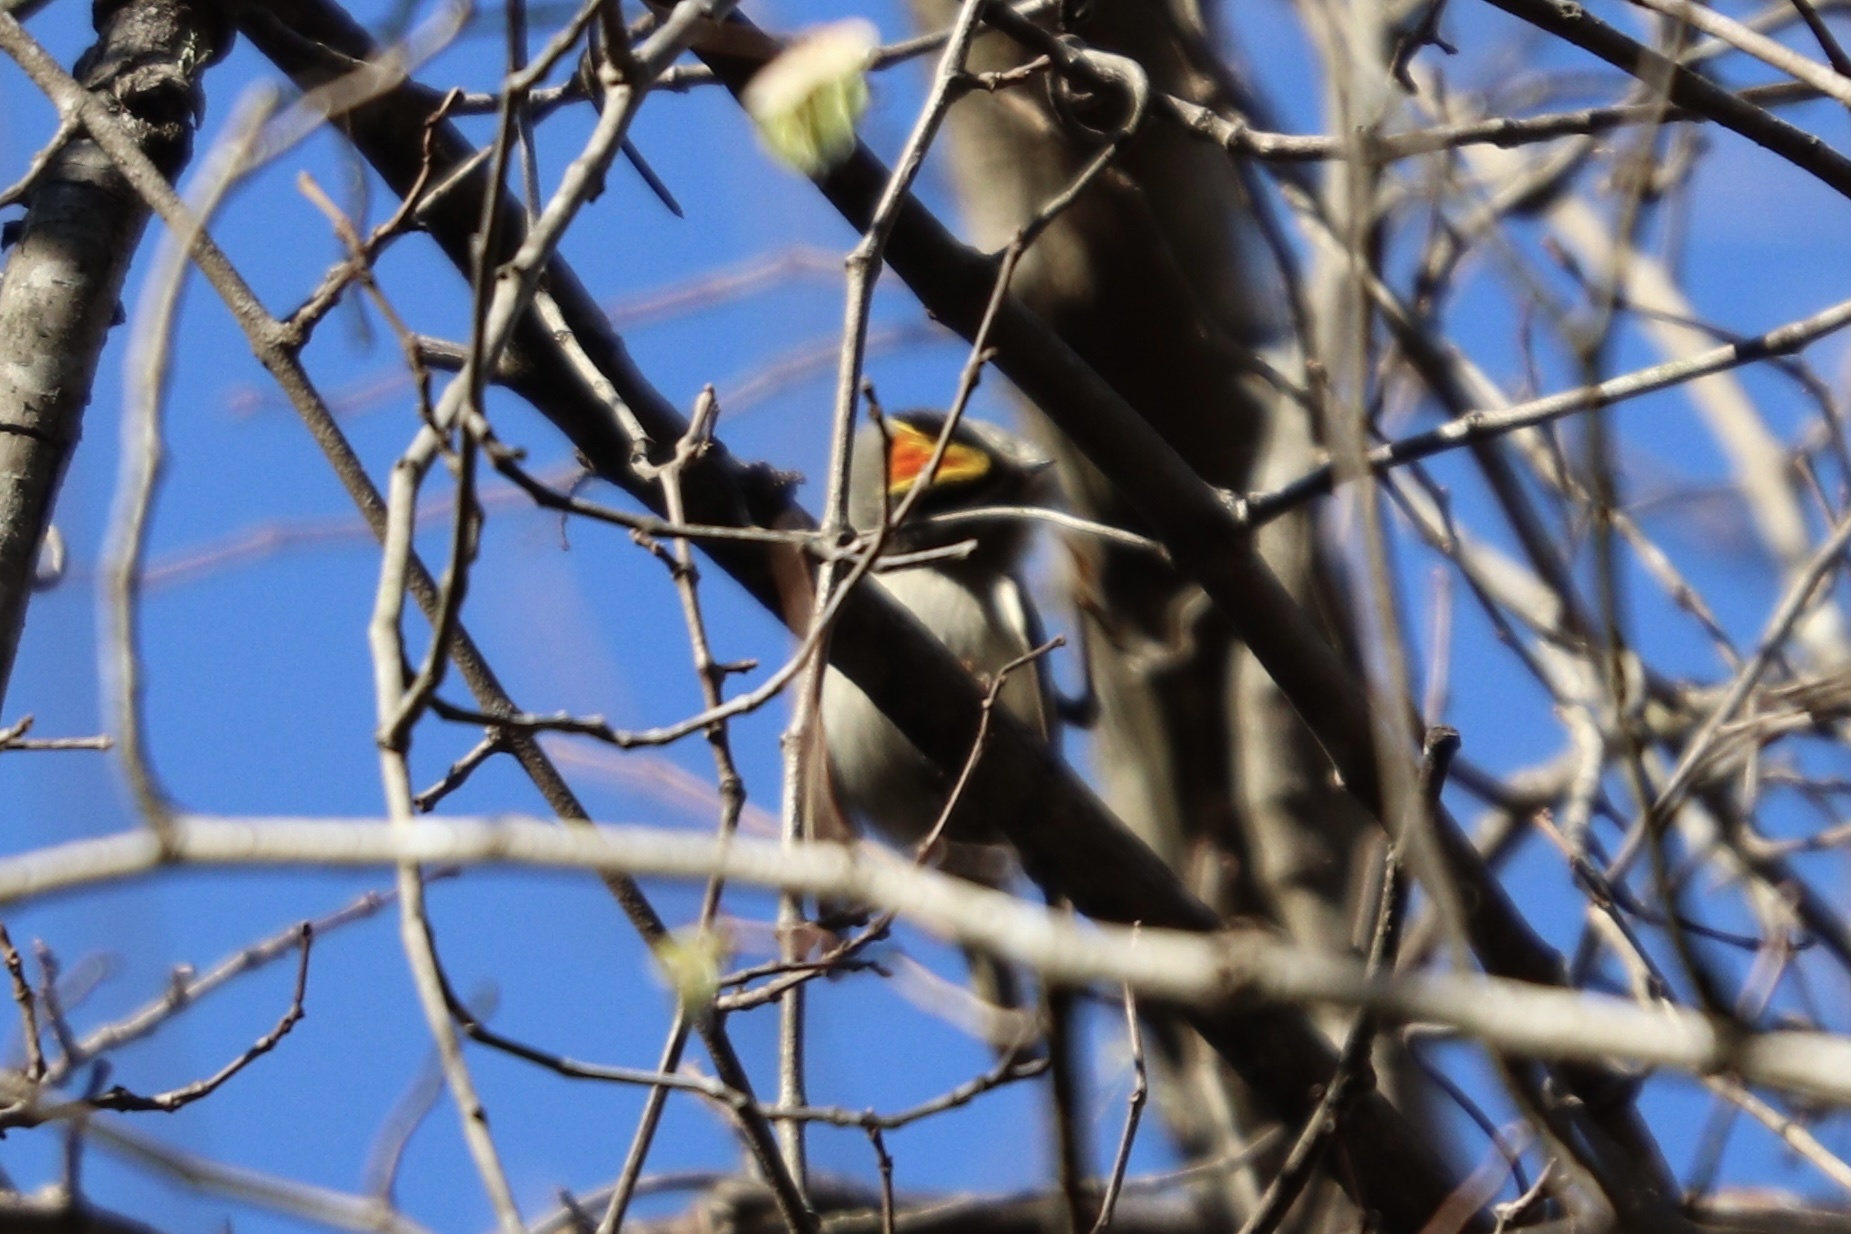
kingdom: Animalia
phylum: Chordata
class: Aves
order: Passeriformes
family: Regulidae
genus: Regulus
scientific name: Regulus satrapa
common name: Golden-crowned kinglet
